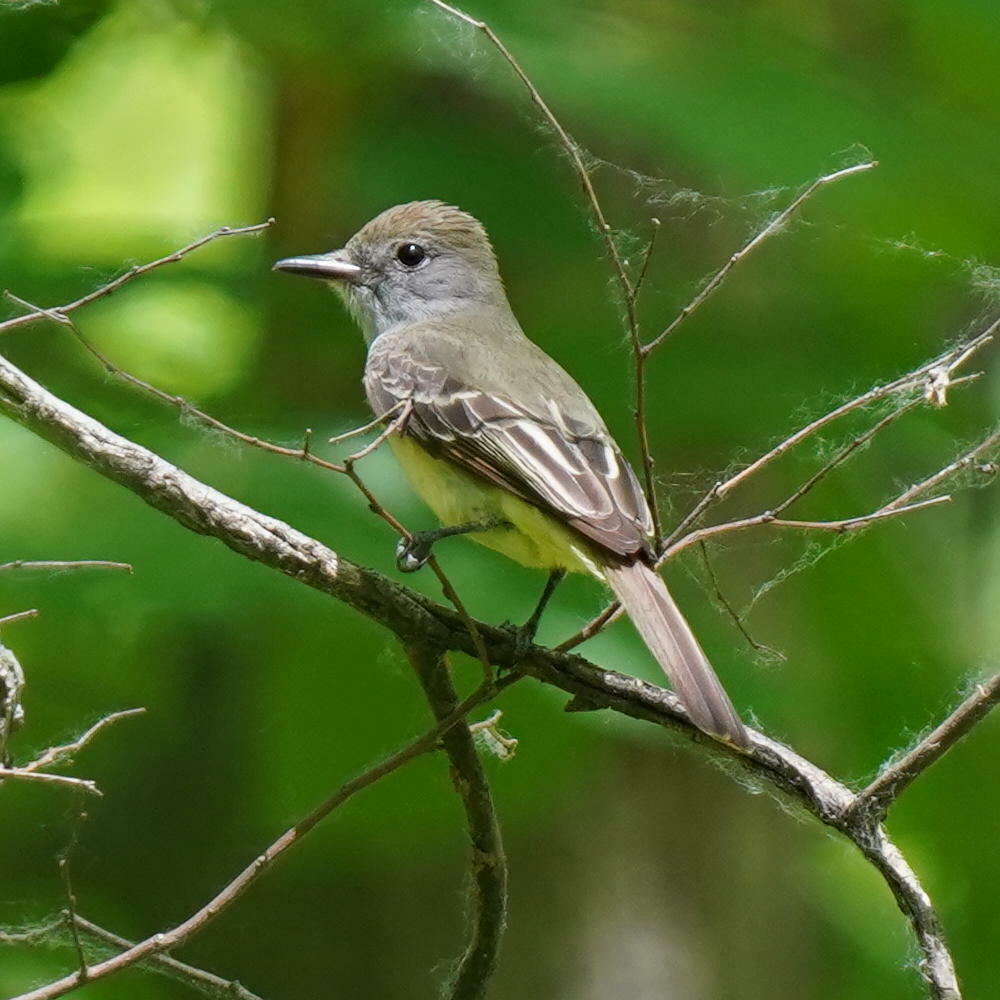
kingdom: Animalia
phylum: Chordata
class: Aves
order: Passeriformes
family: Tyrannidae
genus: Myiarchus
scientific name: Myiarchus crinitus
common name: Great crested flycatcher
